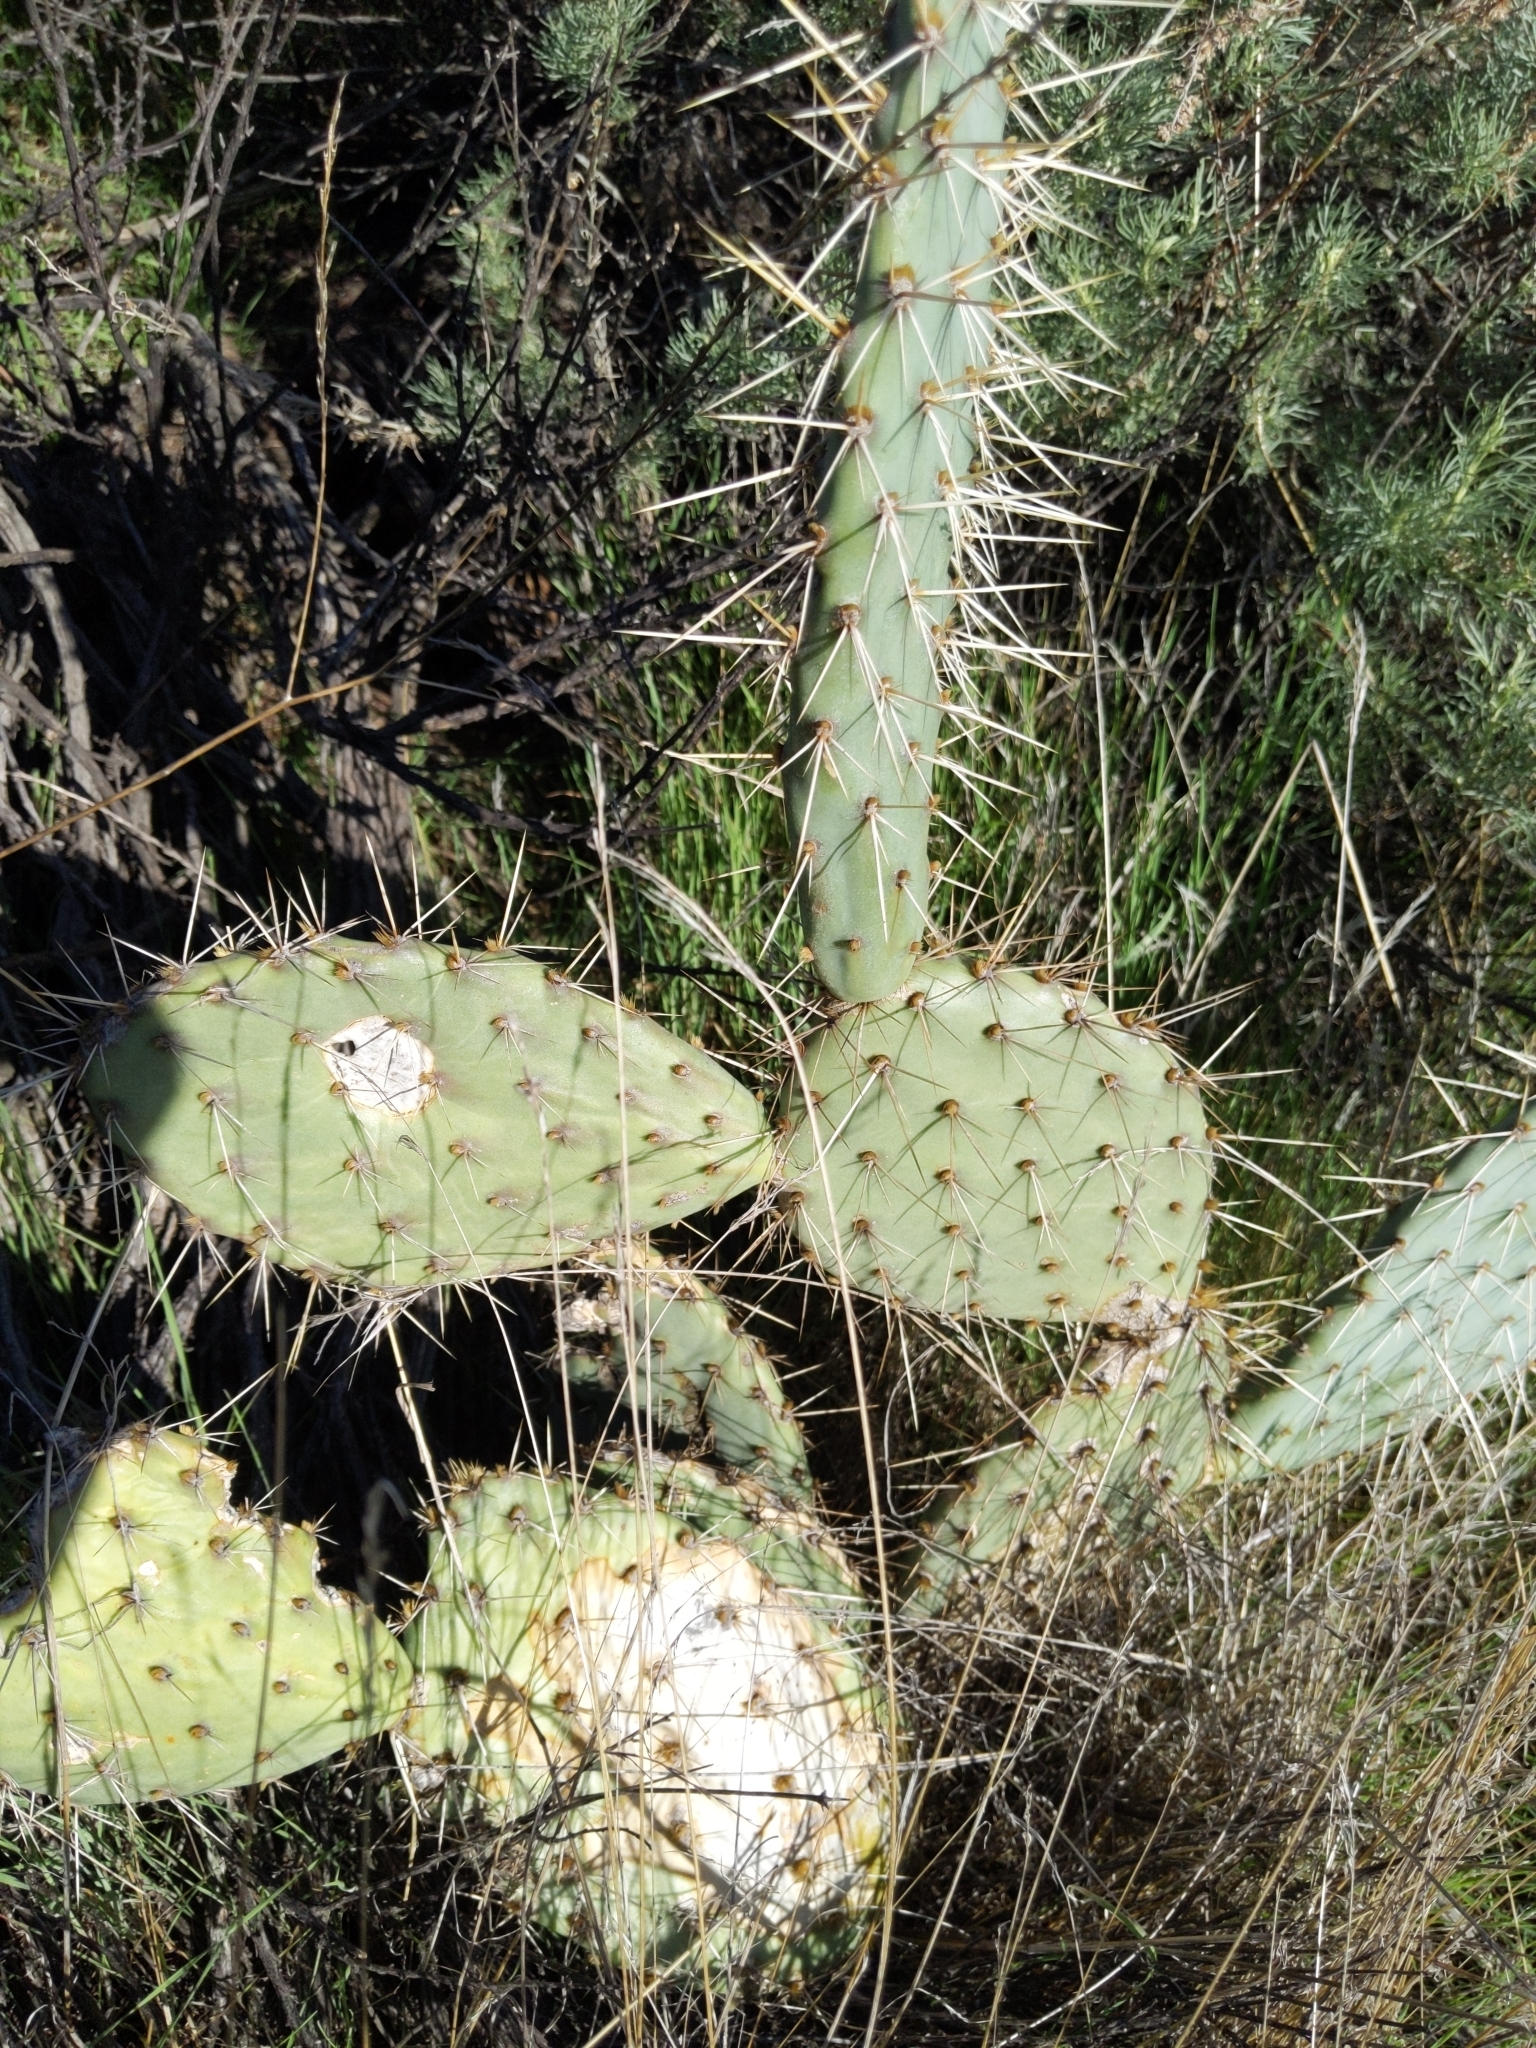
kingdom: Plantae
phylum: Tracheophyta
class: Magnoliopsida
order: Caryophyllales
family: Cactaceae
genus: Opuntia
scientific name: Opuntia littoralis
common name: Coastal prickly-pear
